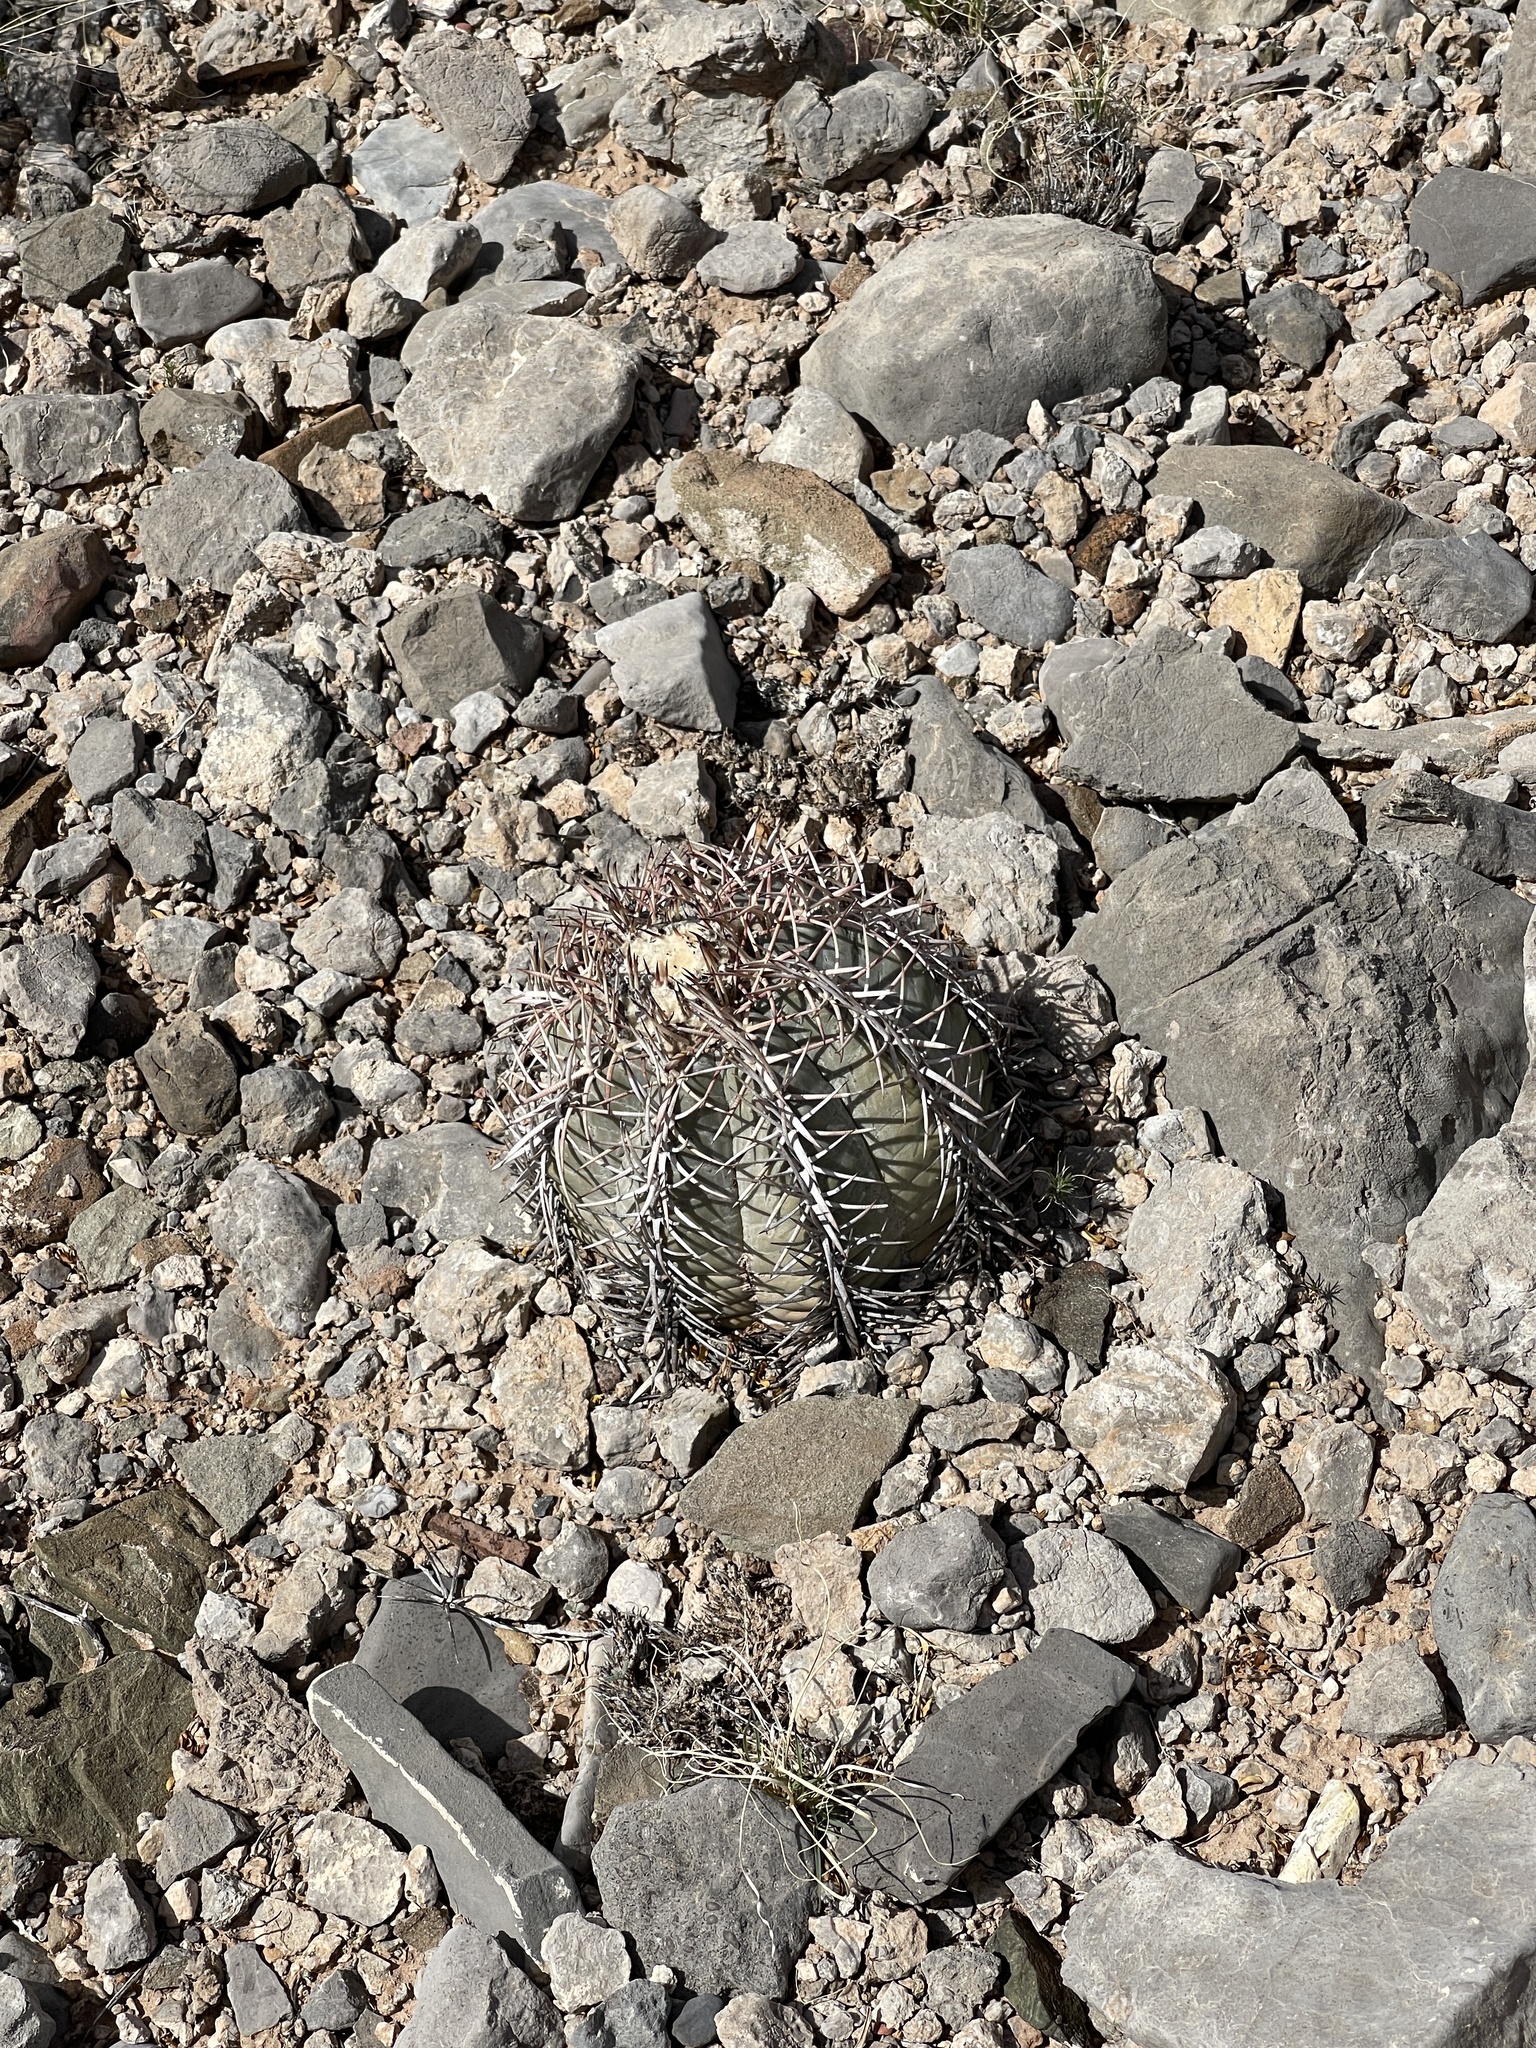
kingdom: Plantae
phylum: Tracheophyta
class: Magnoliopsida
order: Caryophyllales
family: Cactaceae
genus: Echinocactus
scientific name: Echinocactus horizonthalonius
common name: Devilshead
